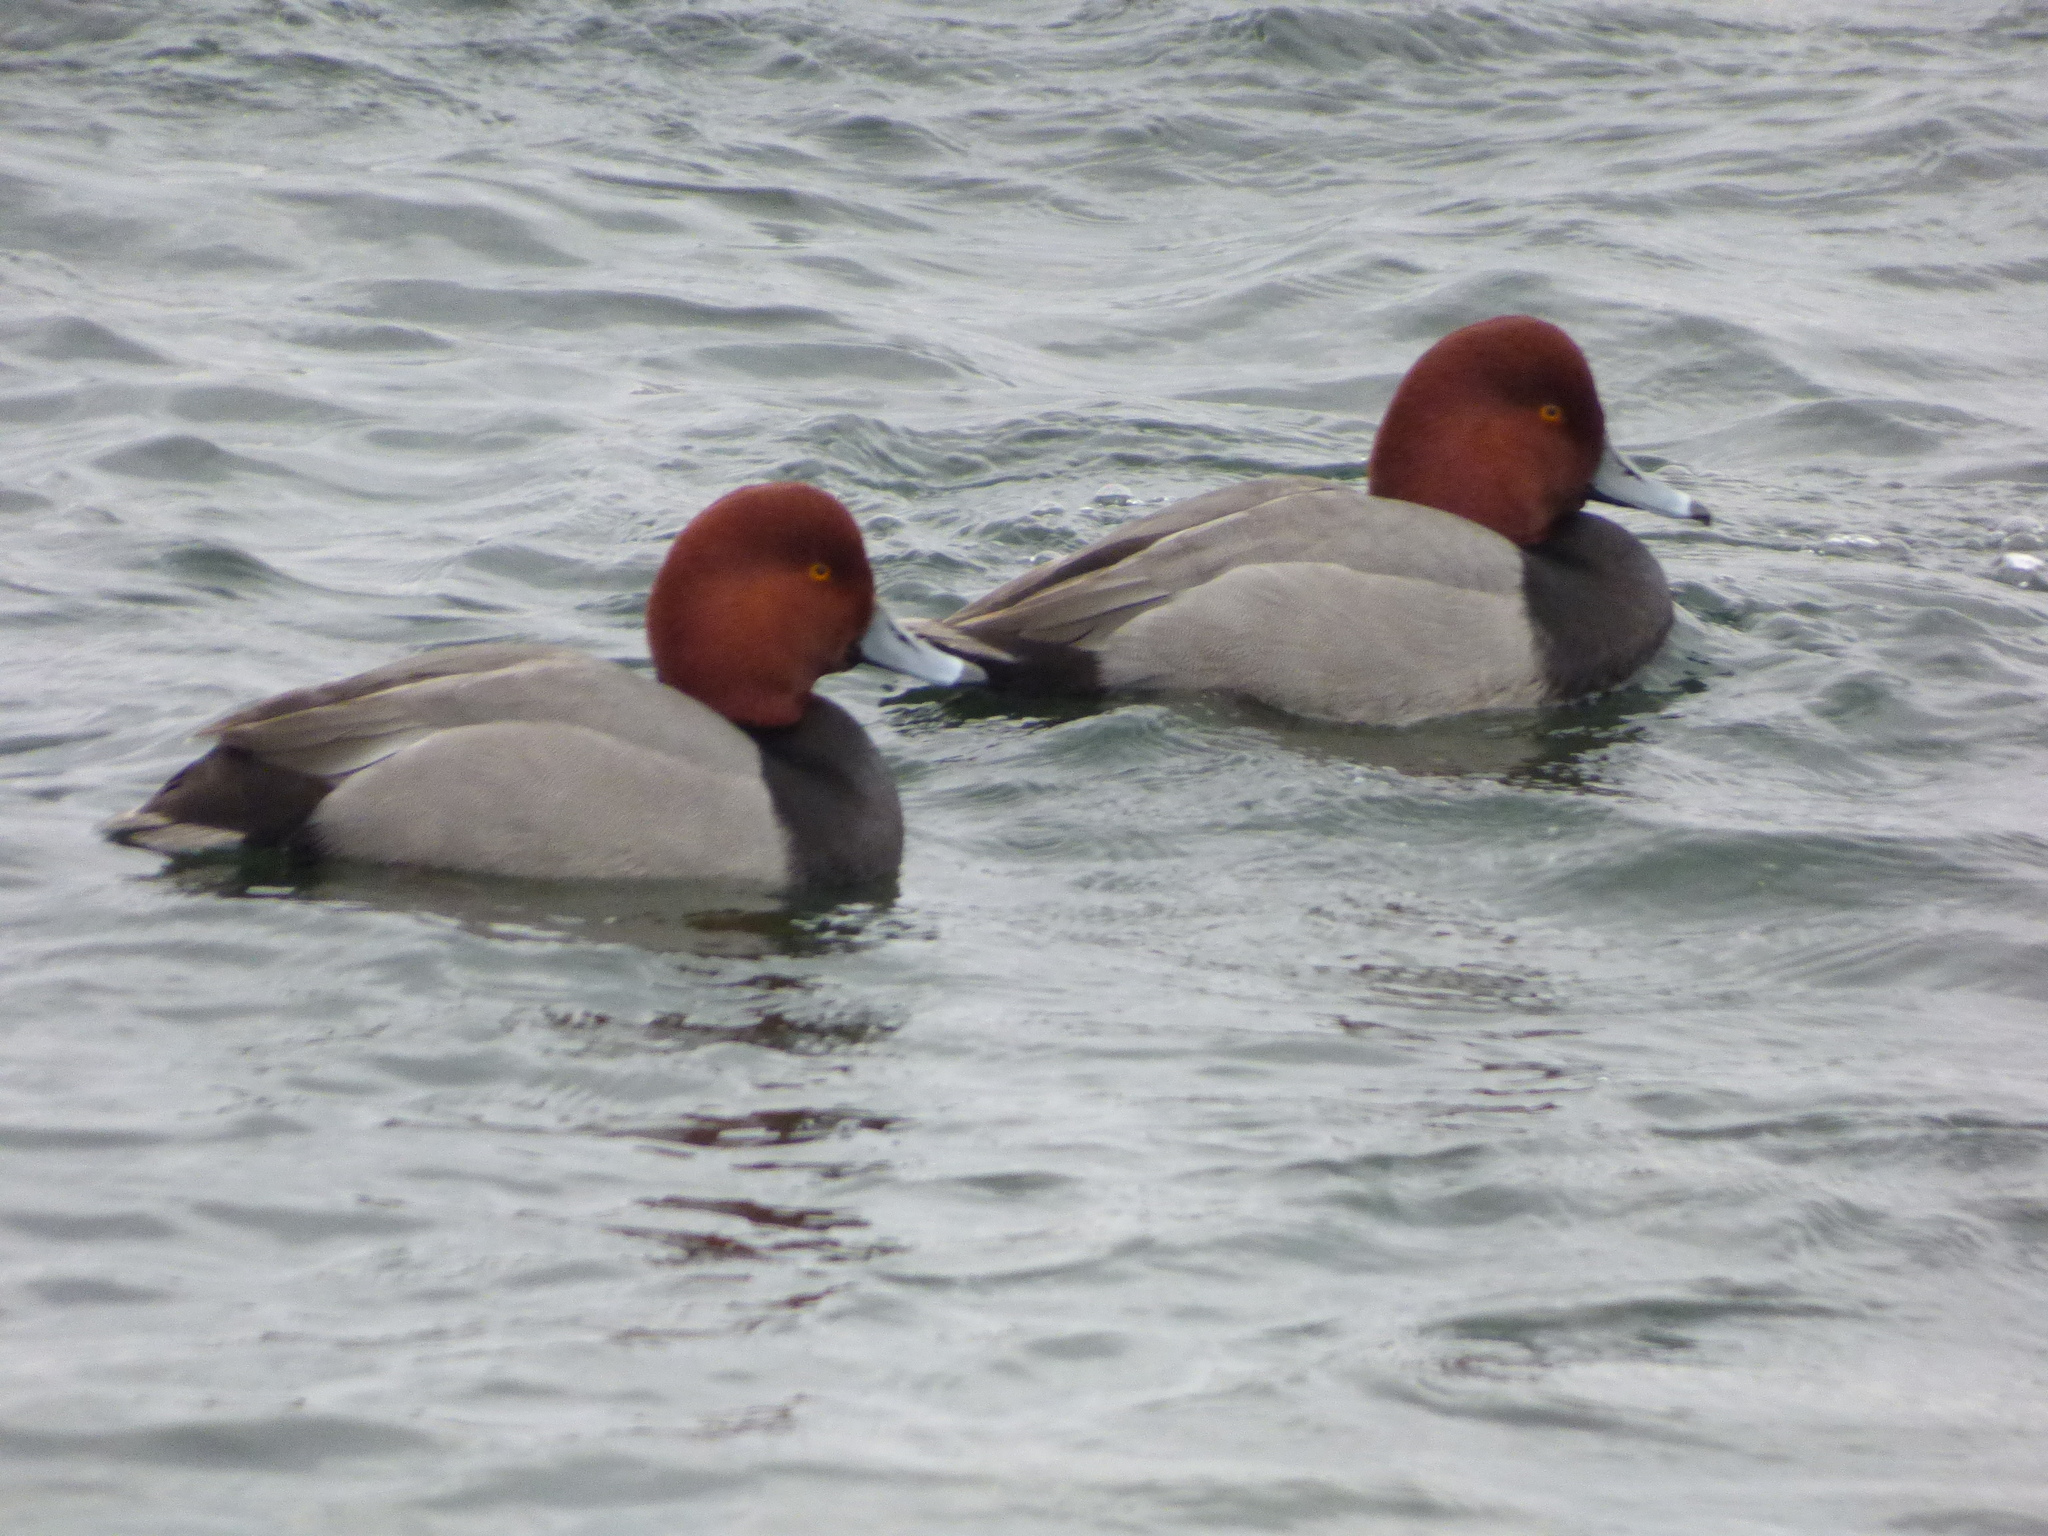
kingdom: Animalia
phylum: Chordata
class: Aves
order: Anseriformes
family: Anatidae
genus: Aythya
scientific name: Aythya americana
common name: Redhead
